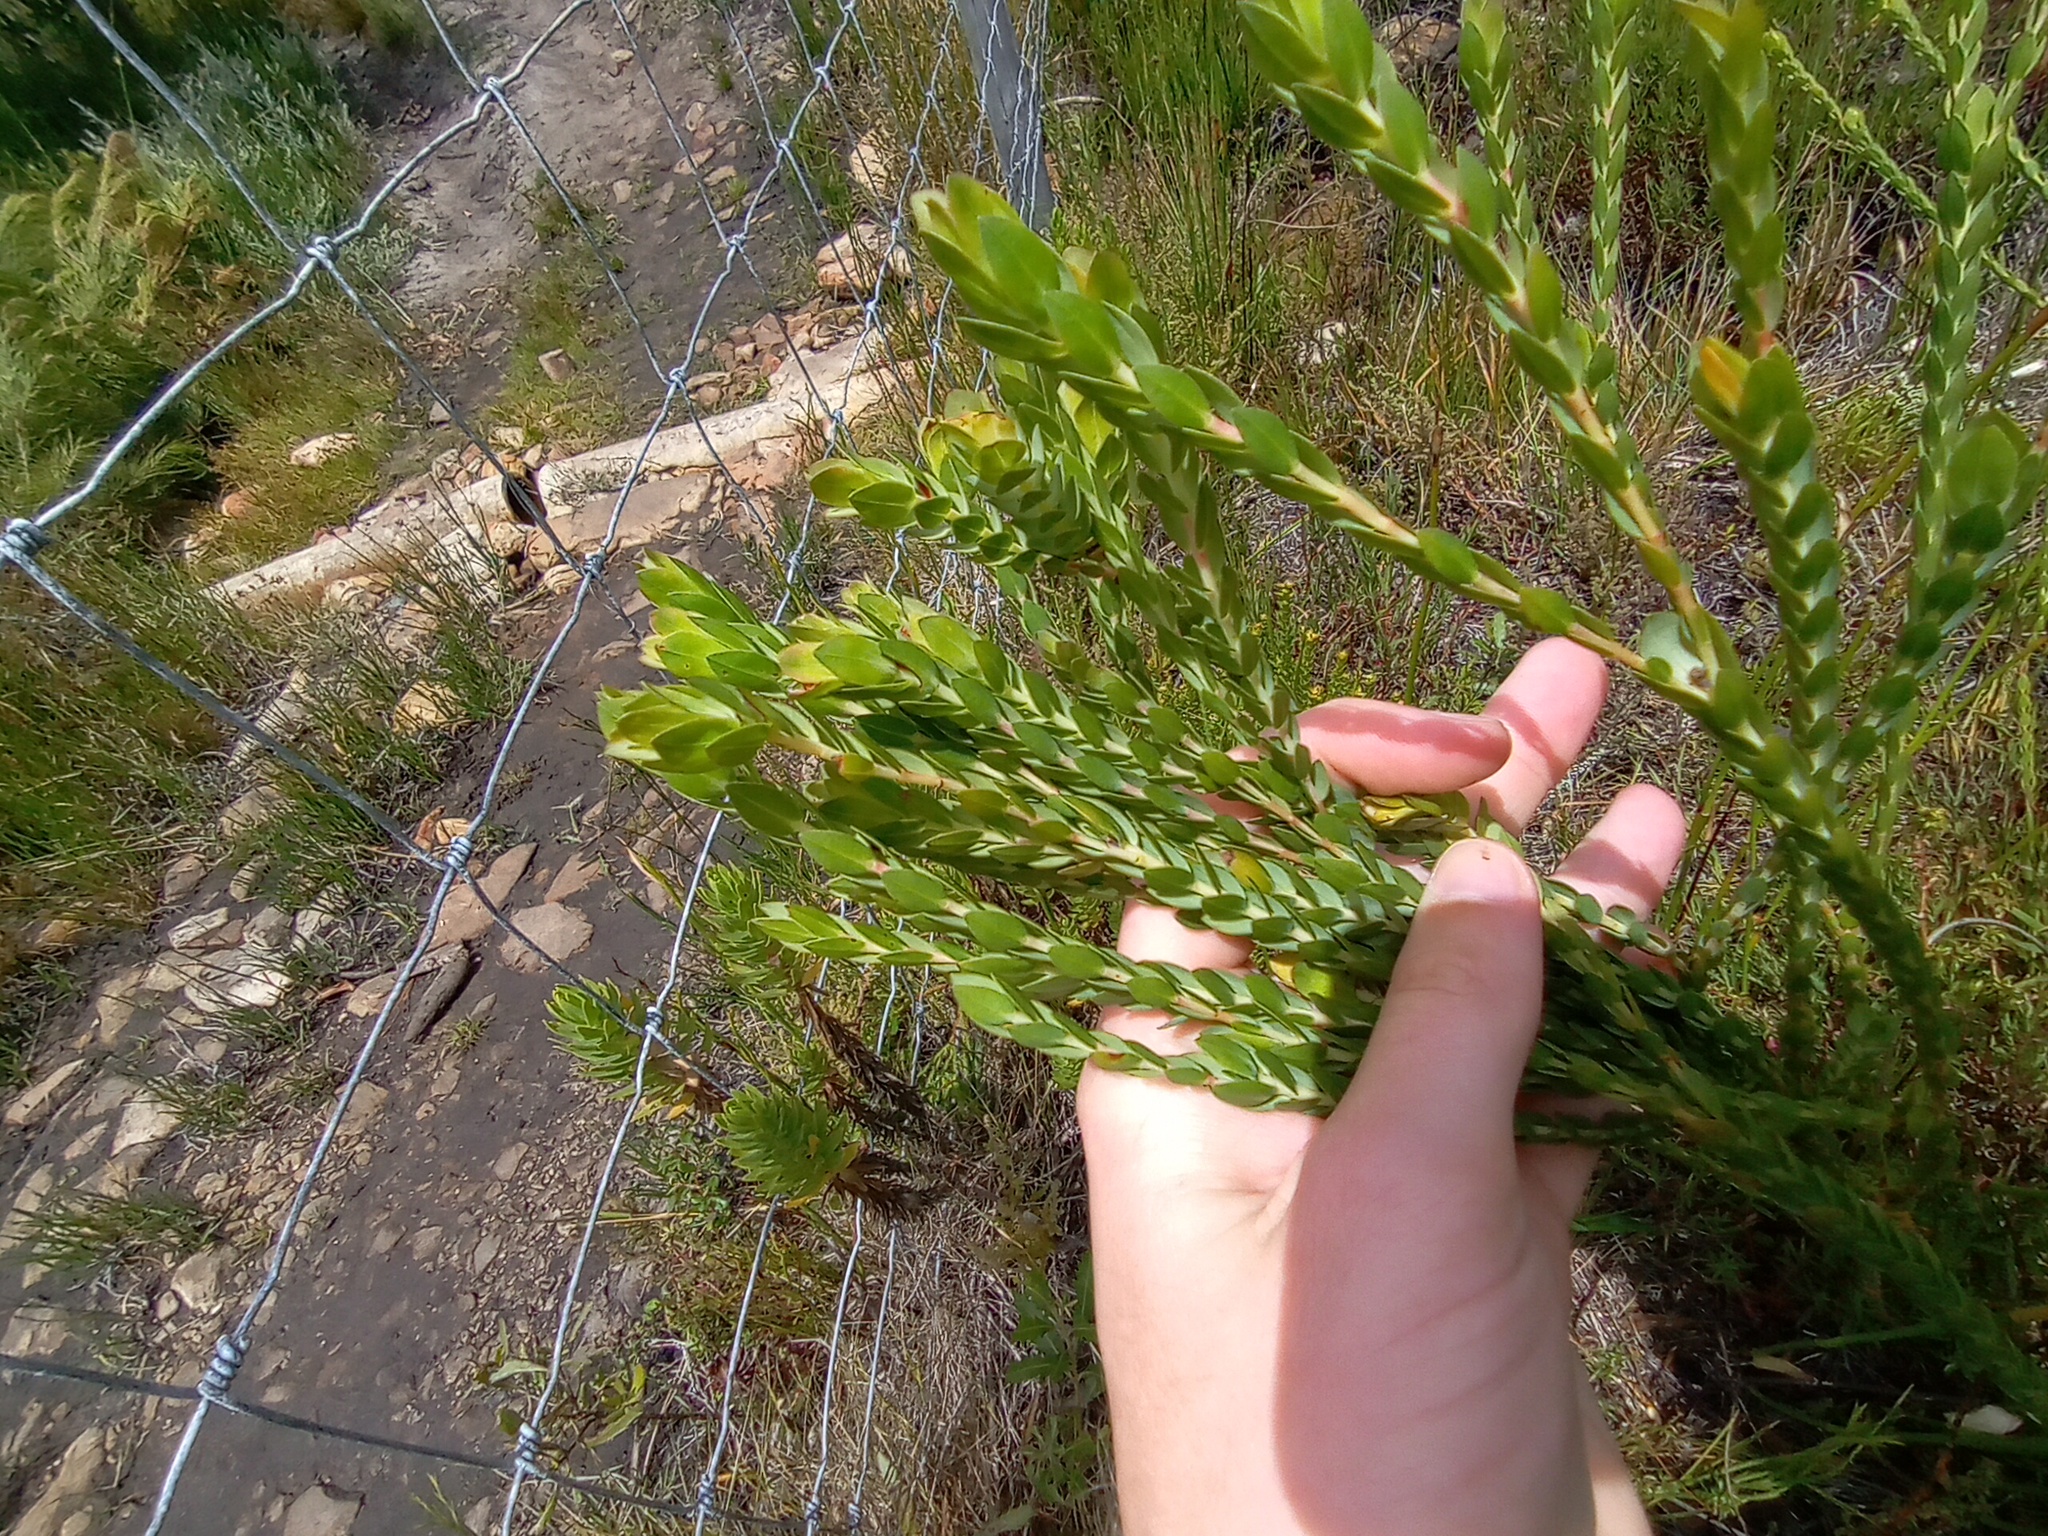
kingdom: Plantae
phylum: Tracheophyta
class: Magnoliopsida
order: Malvales
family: Thymelaeaceae
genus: Gnidia
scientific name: Gnidia oppositifolia
